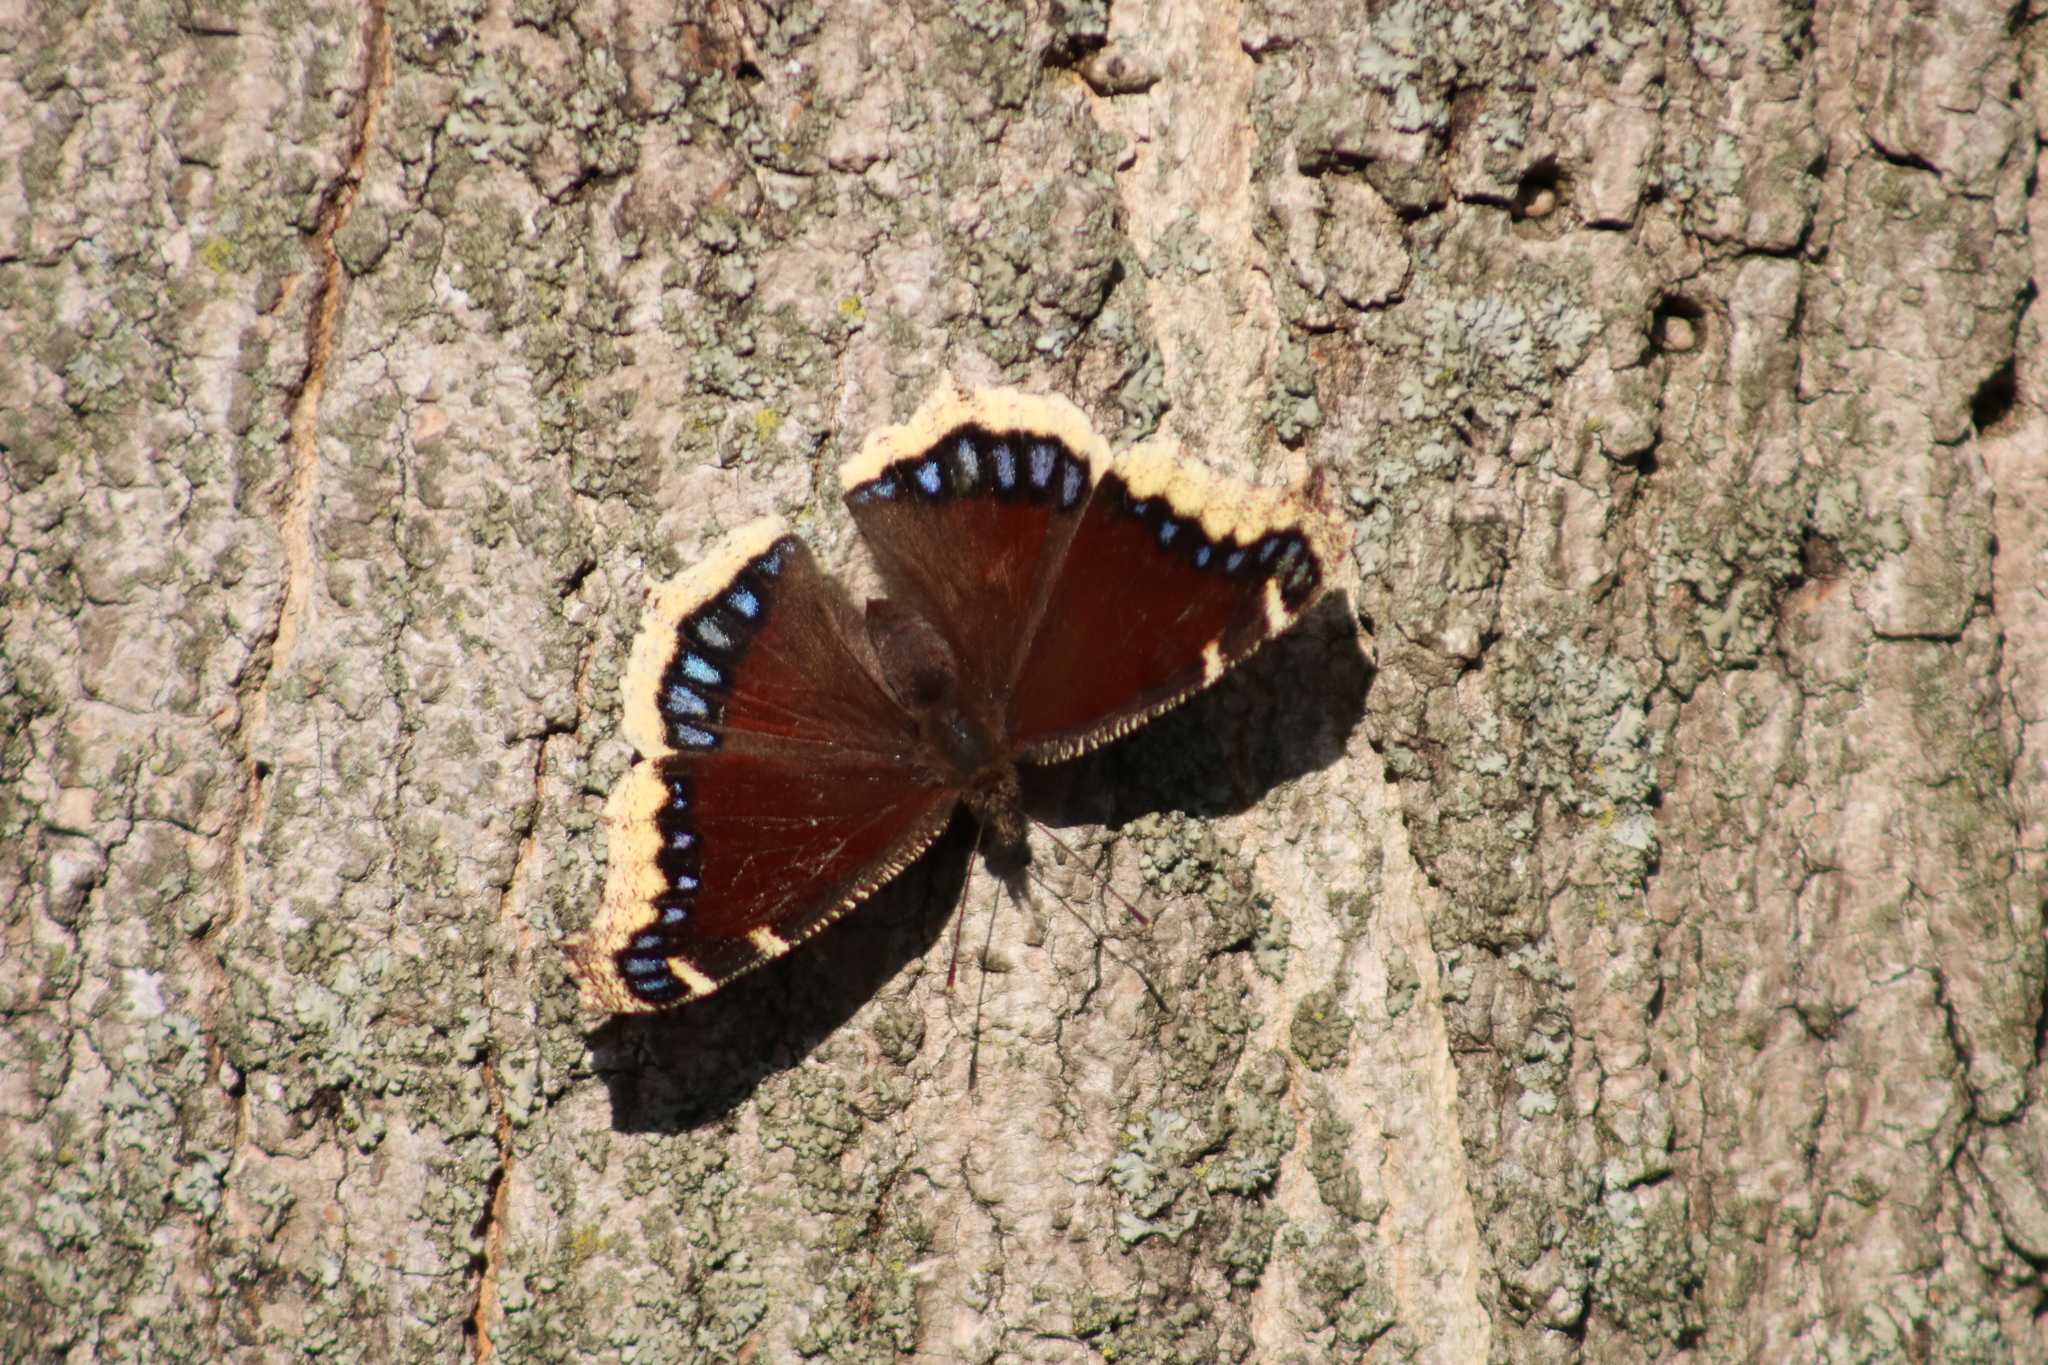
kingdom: Animalia
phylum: Arthropoda
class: Insecta
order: Lepidoptera
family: Nymphalidae
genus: Nymphalis
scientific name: Nymphalis antiopa
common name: Camberwell beauty
